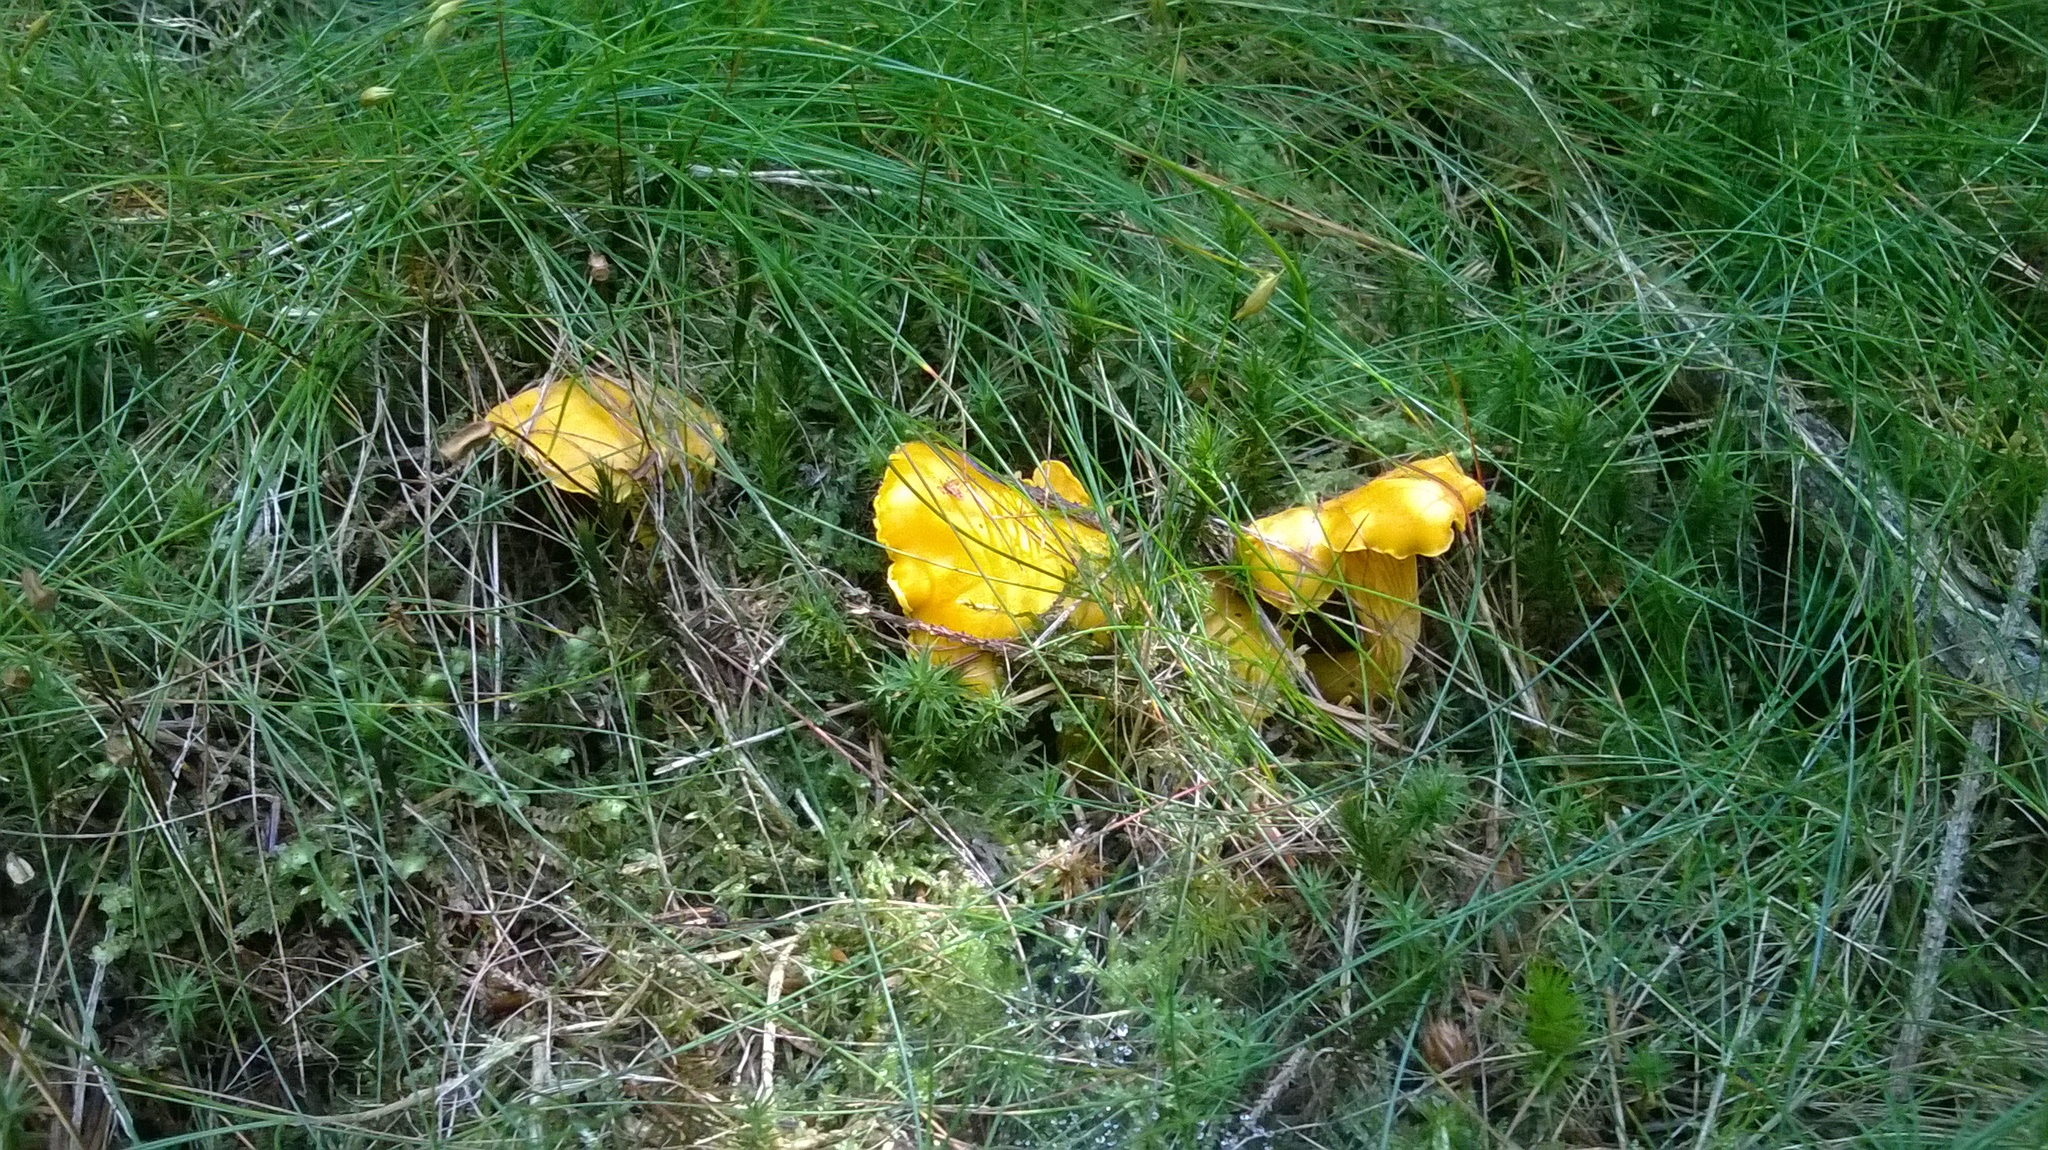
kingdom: Fungi
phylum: Basidiomycota
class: Agaricomycetes
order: Cantharellales
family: Hydnaceae
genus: Cantharellus
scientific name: Cantharellus cibarius
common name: Chanterelle
